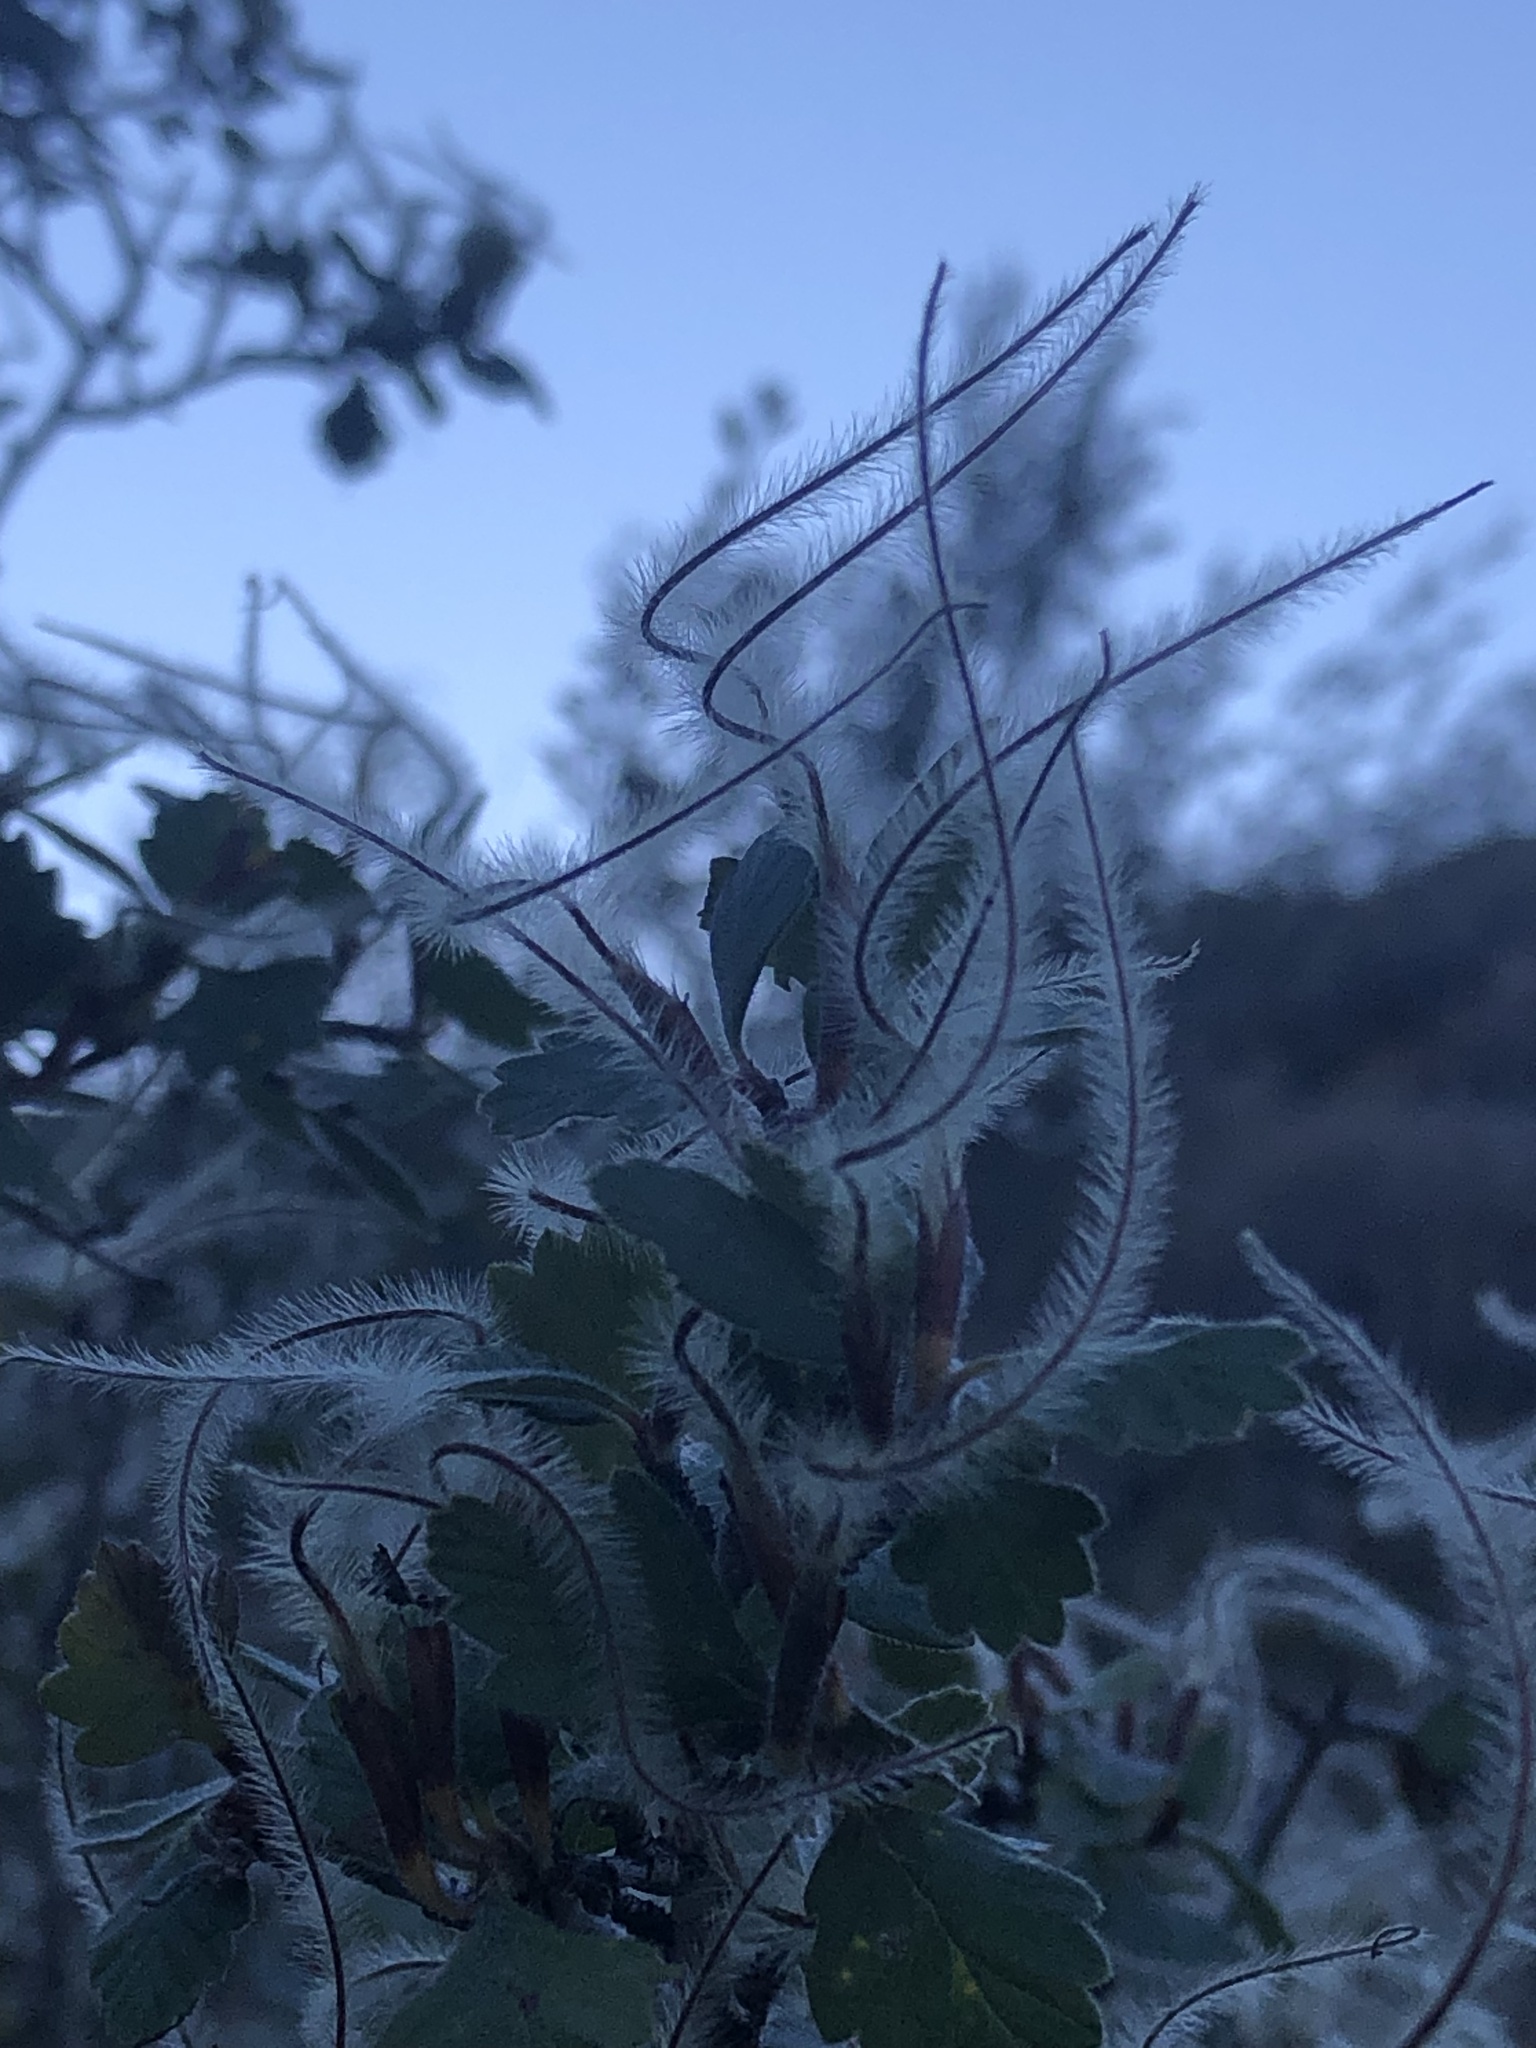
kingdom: Plantae
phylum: Tracheophyta
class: Magnoliopsida
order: Rosales
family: Rosaceae
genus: Cercocarpus
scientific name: Cercocarpus montanus
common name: Alder-leaf cercocarpus
